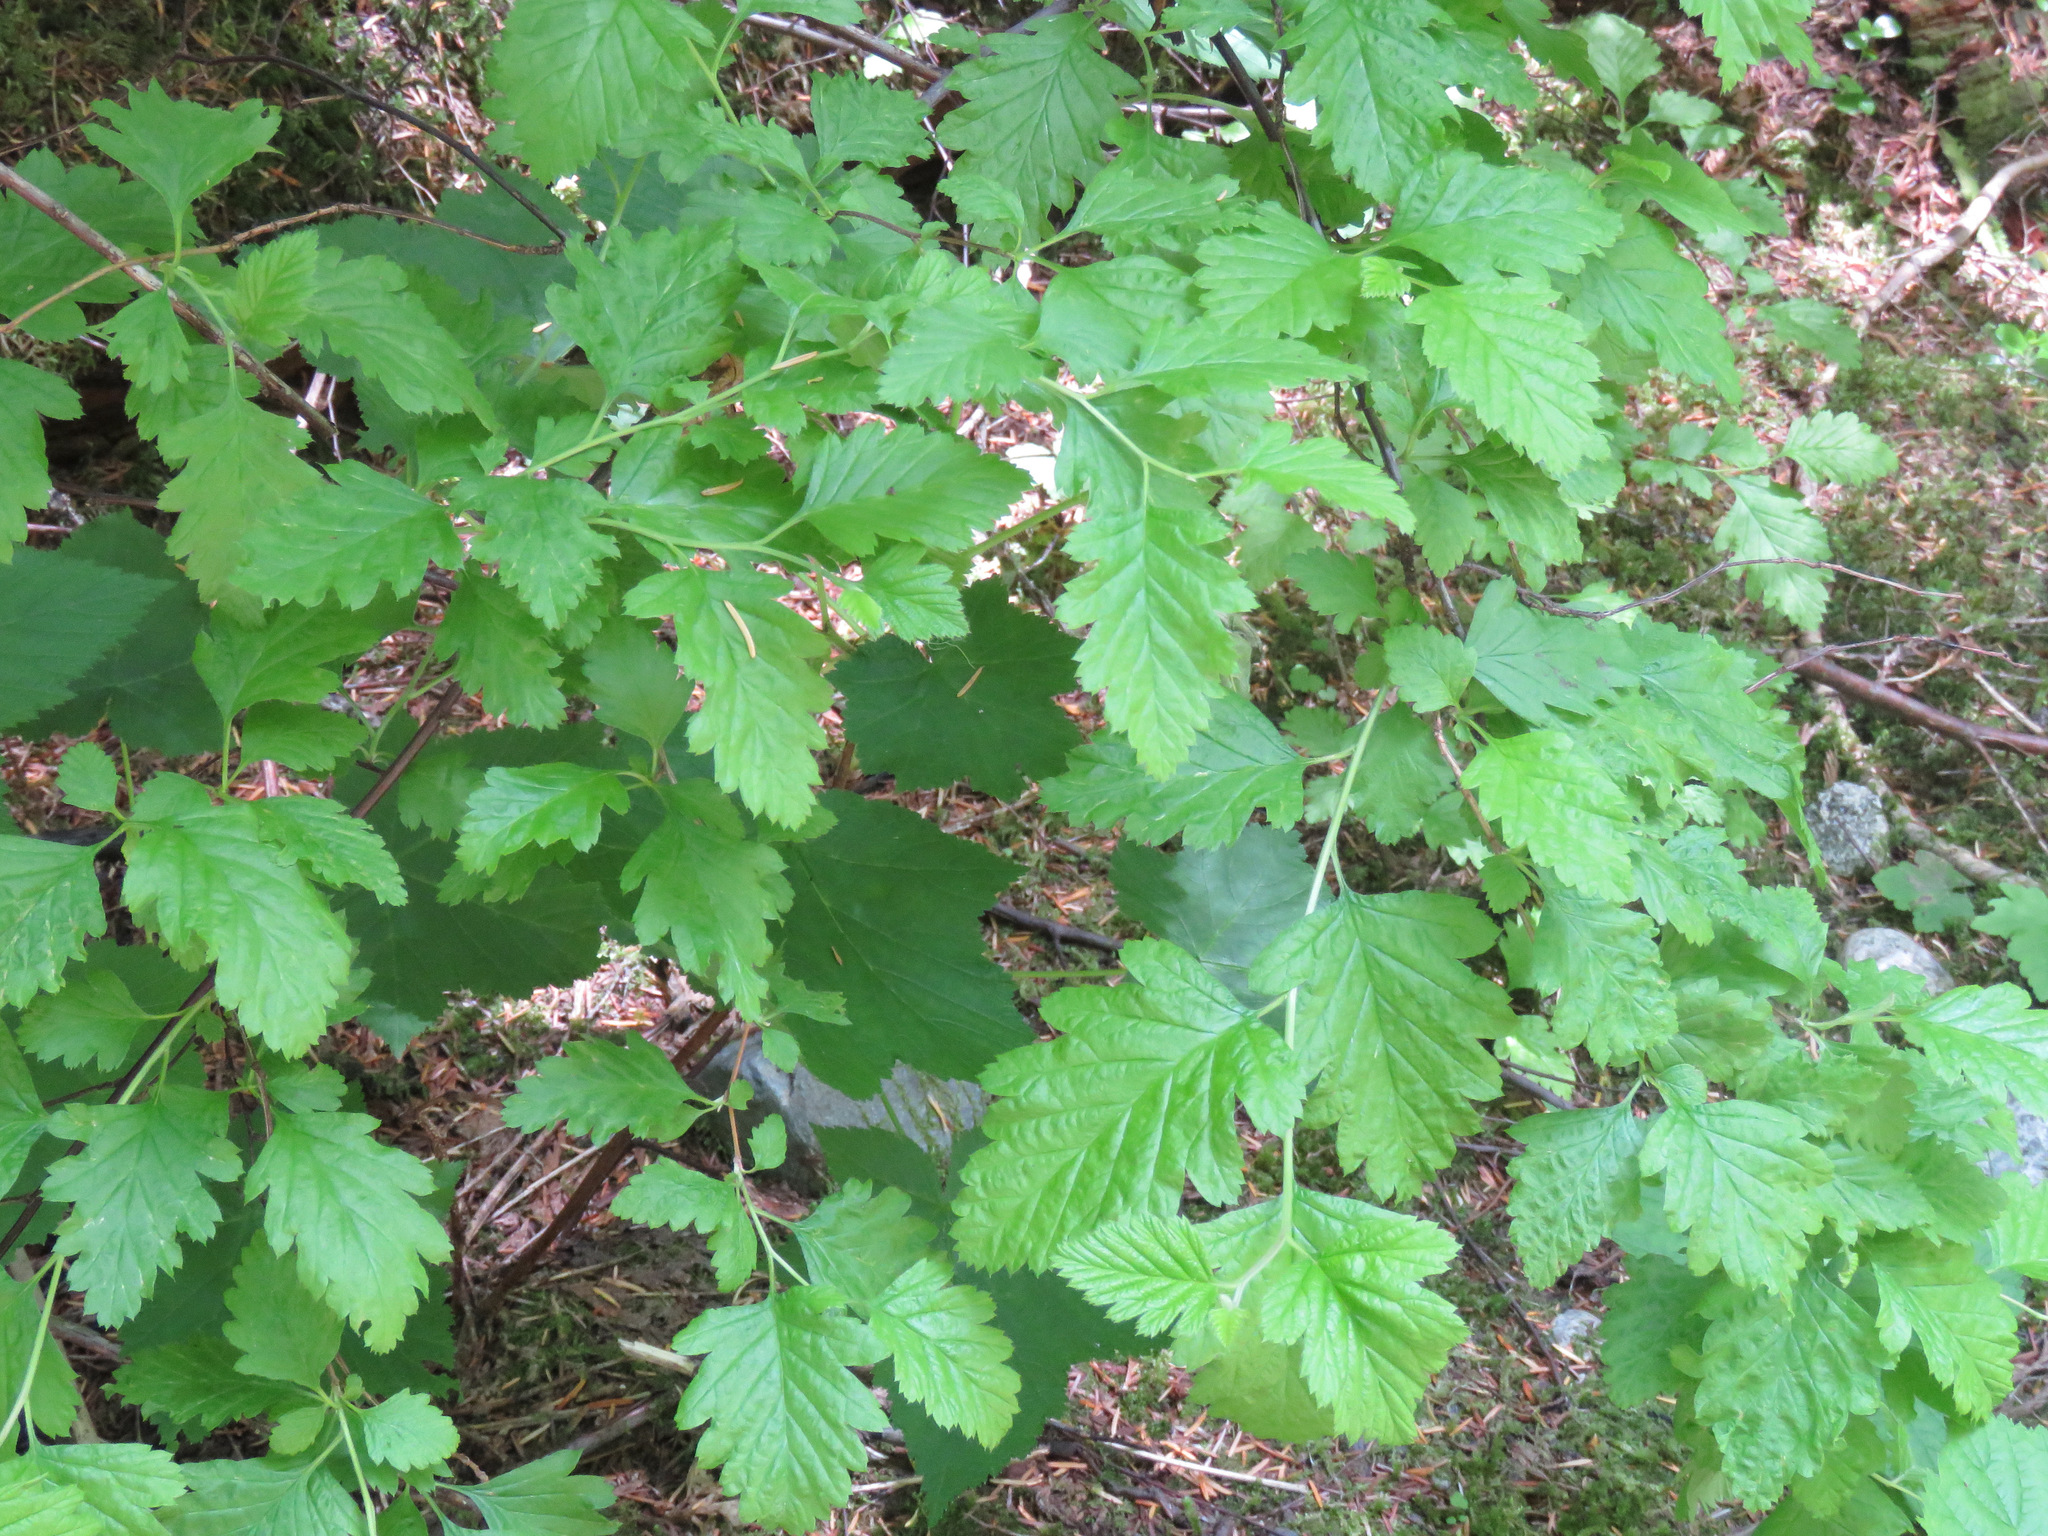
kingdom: Plantae
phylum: Tracheophyta
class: Magnoliopsida
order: Rosales
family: Rosaceae
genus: Holodiscus
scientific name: Holodiscus discolor
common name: Oceanspray
